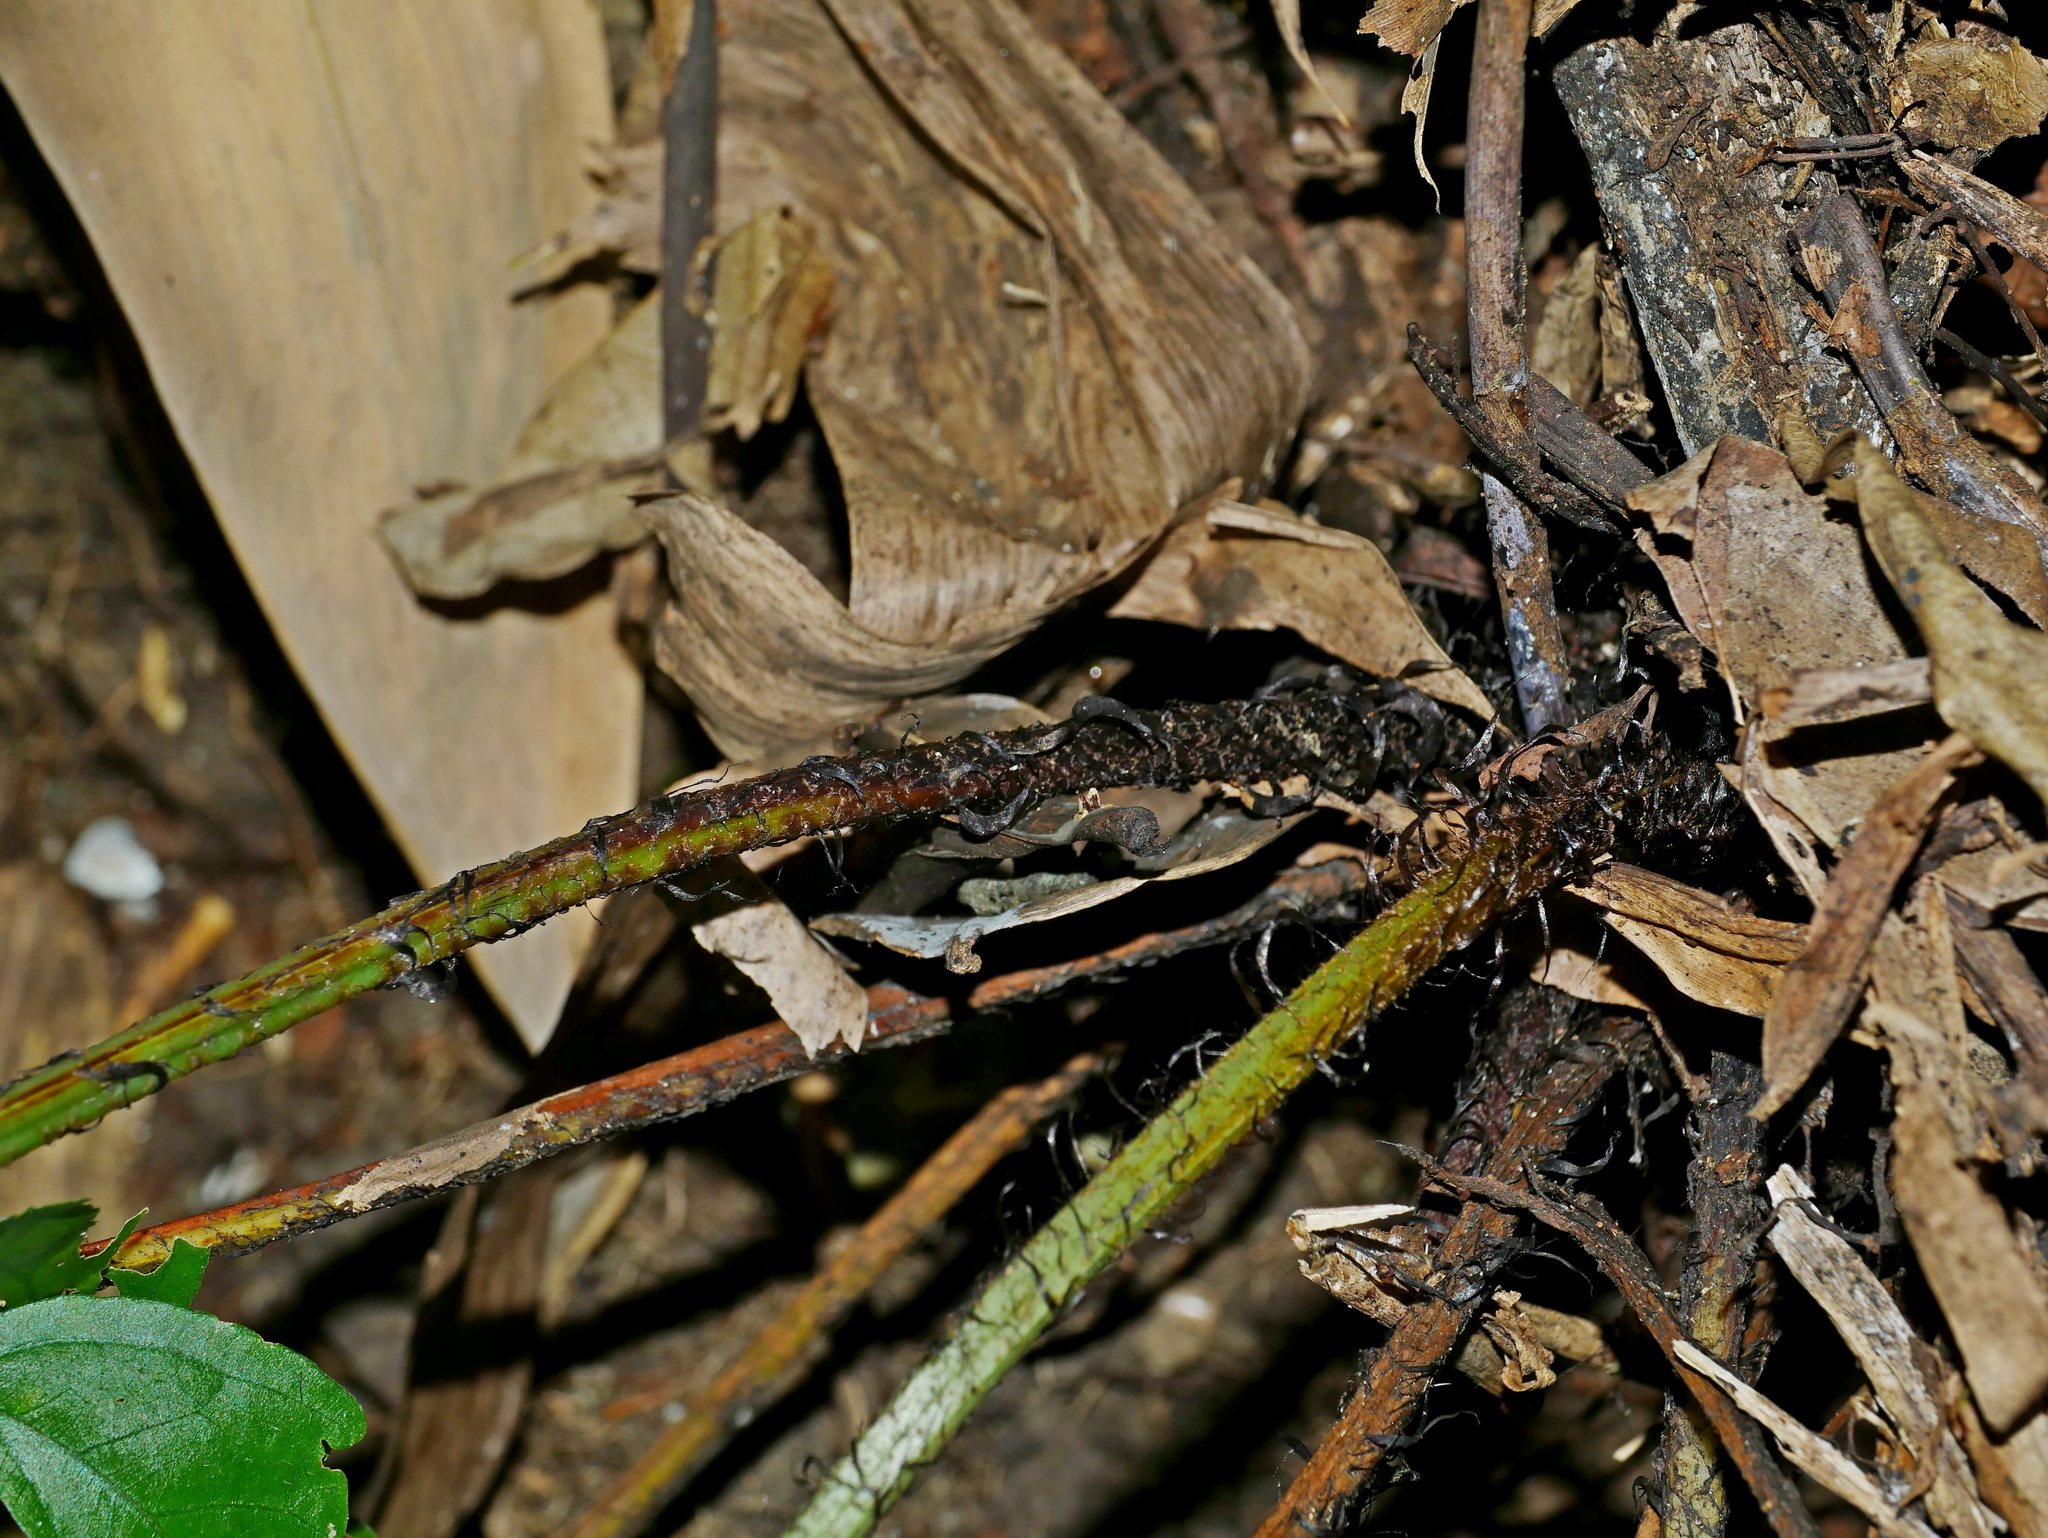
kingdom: Plantae
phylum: Tracheophyta
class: Polypodiopsida
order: Polypodiales
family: Aspleniaceae
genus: Asplenium
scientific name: Asplenium formosae
